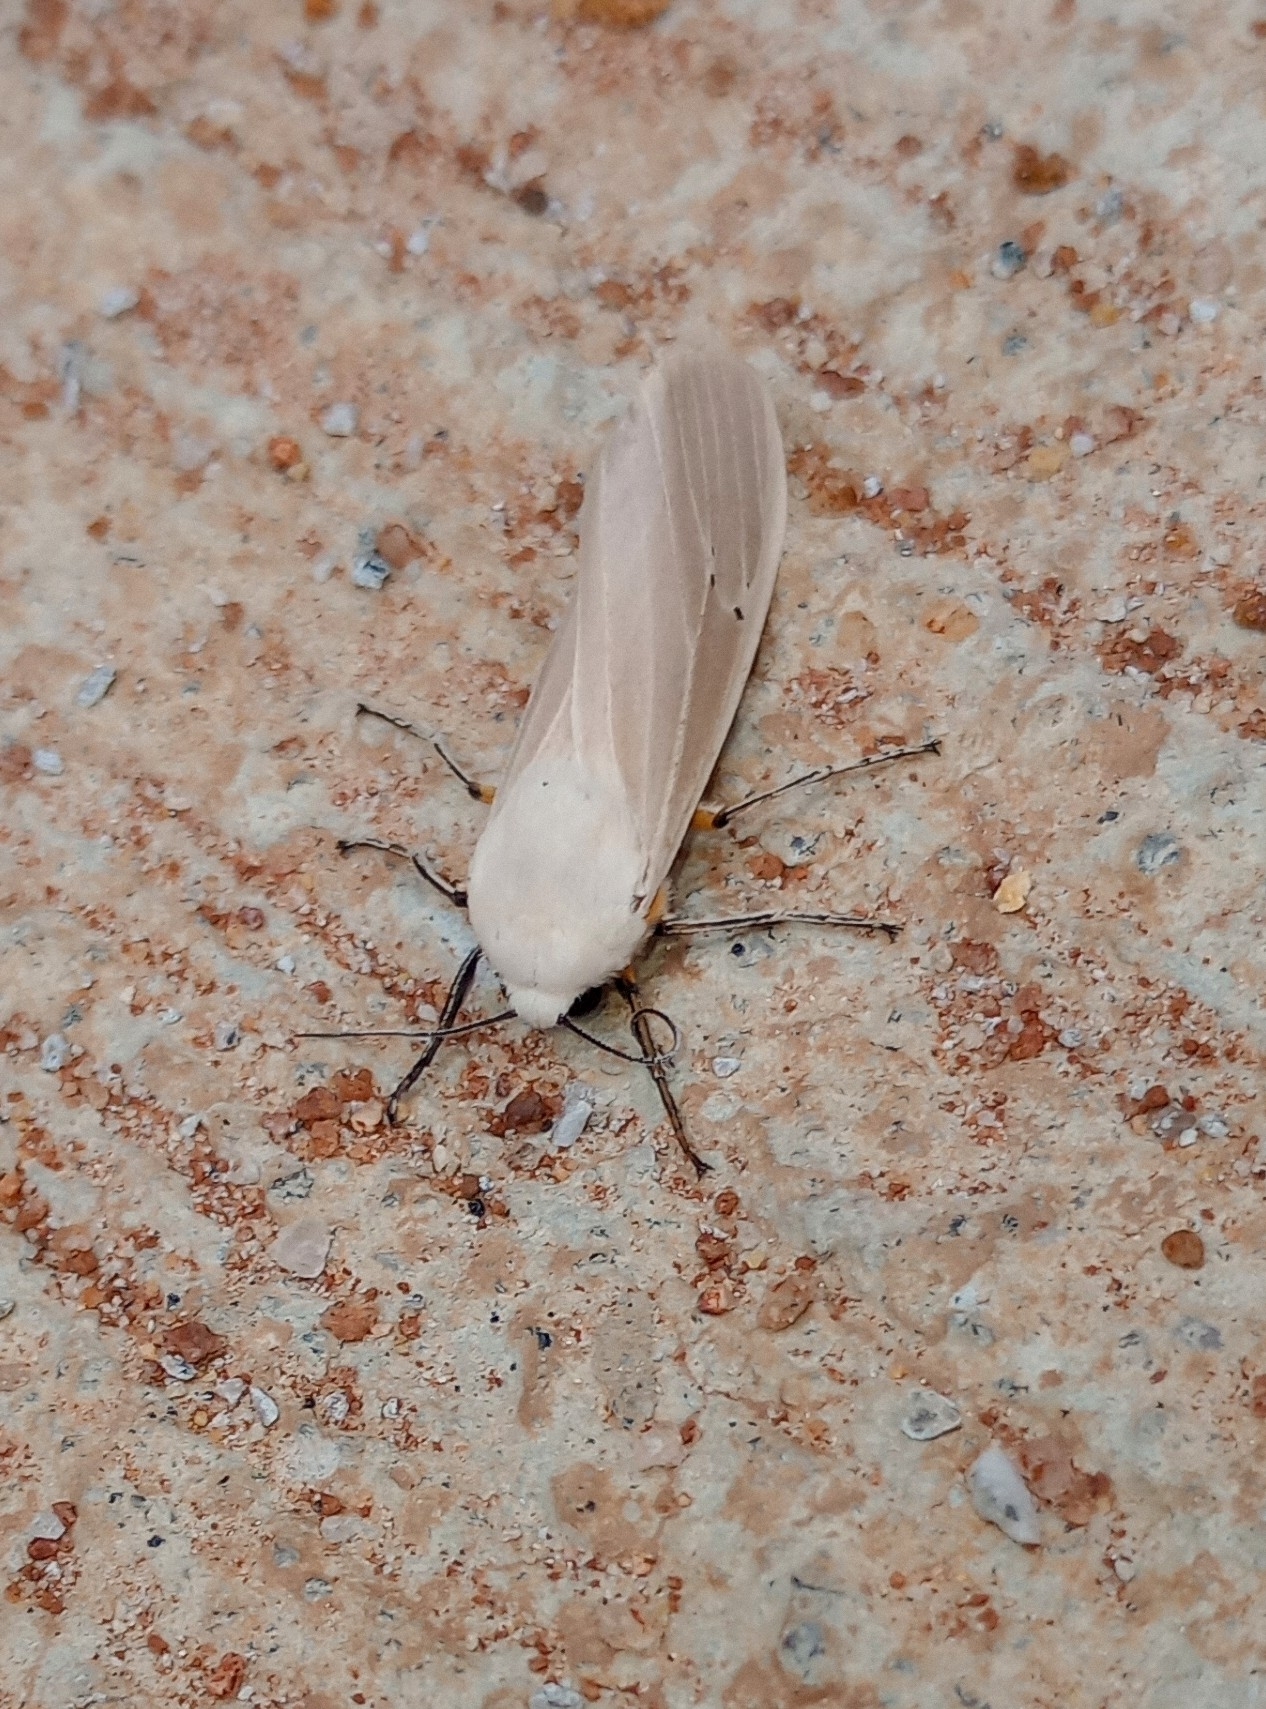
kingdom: Animalia
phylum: Arthropoda
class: Insecta
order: Lepidoptera
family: Erebidae
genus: Creatonotos
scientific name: Creatonotos transiens
